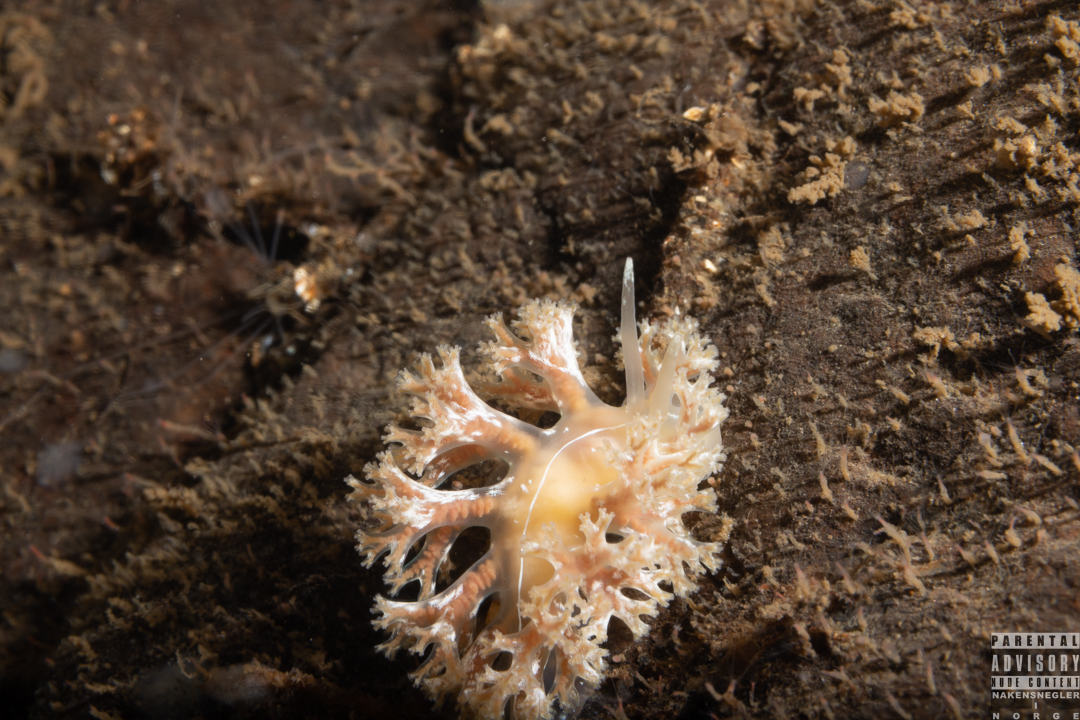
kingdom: Animalia
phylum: Mollusca
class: Gastropoda
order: Nudibranchia
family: Heroidae
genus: Hero
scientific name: Hero formosa
